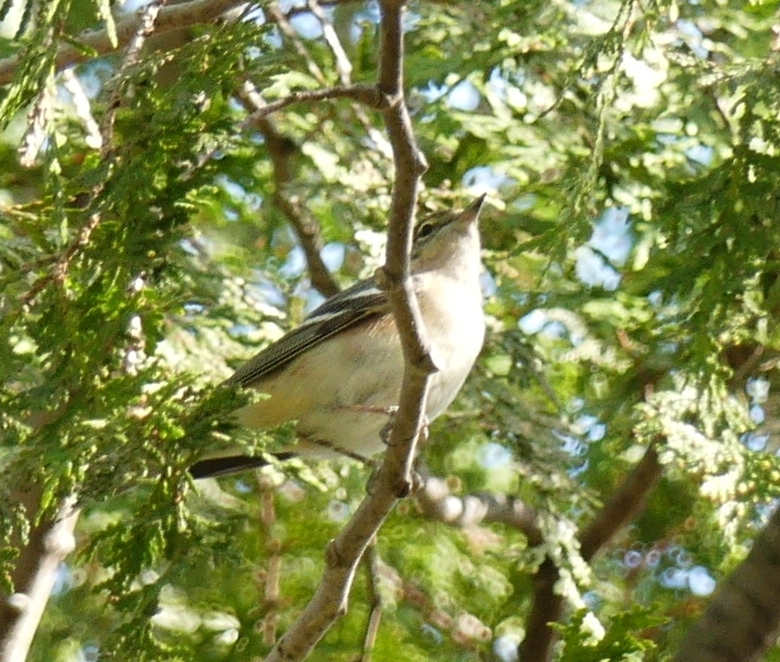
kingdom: Animalia
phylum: Chordata
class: Aves
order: Passeriformes
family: Parulidae
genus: Setophaga
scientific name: Setophaga castanea
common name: Bay-breasted warbler
